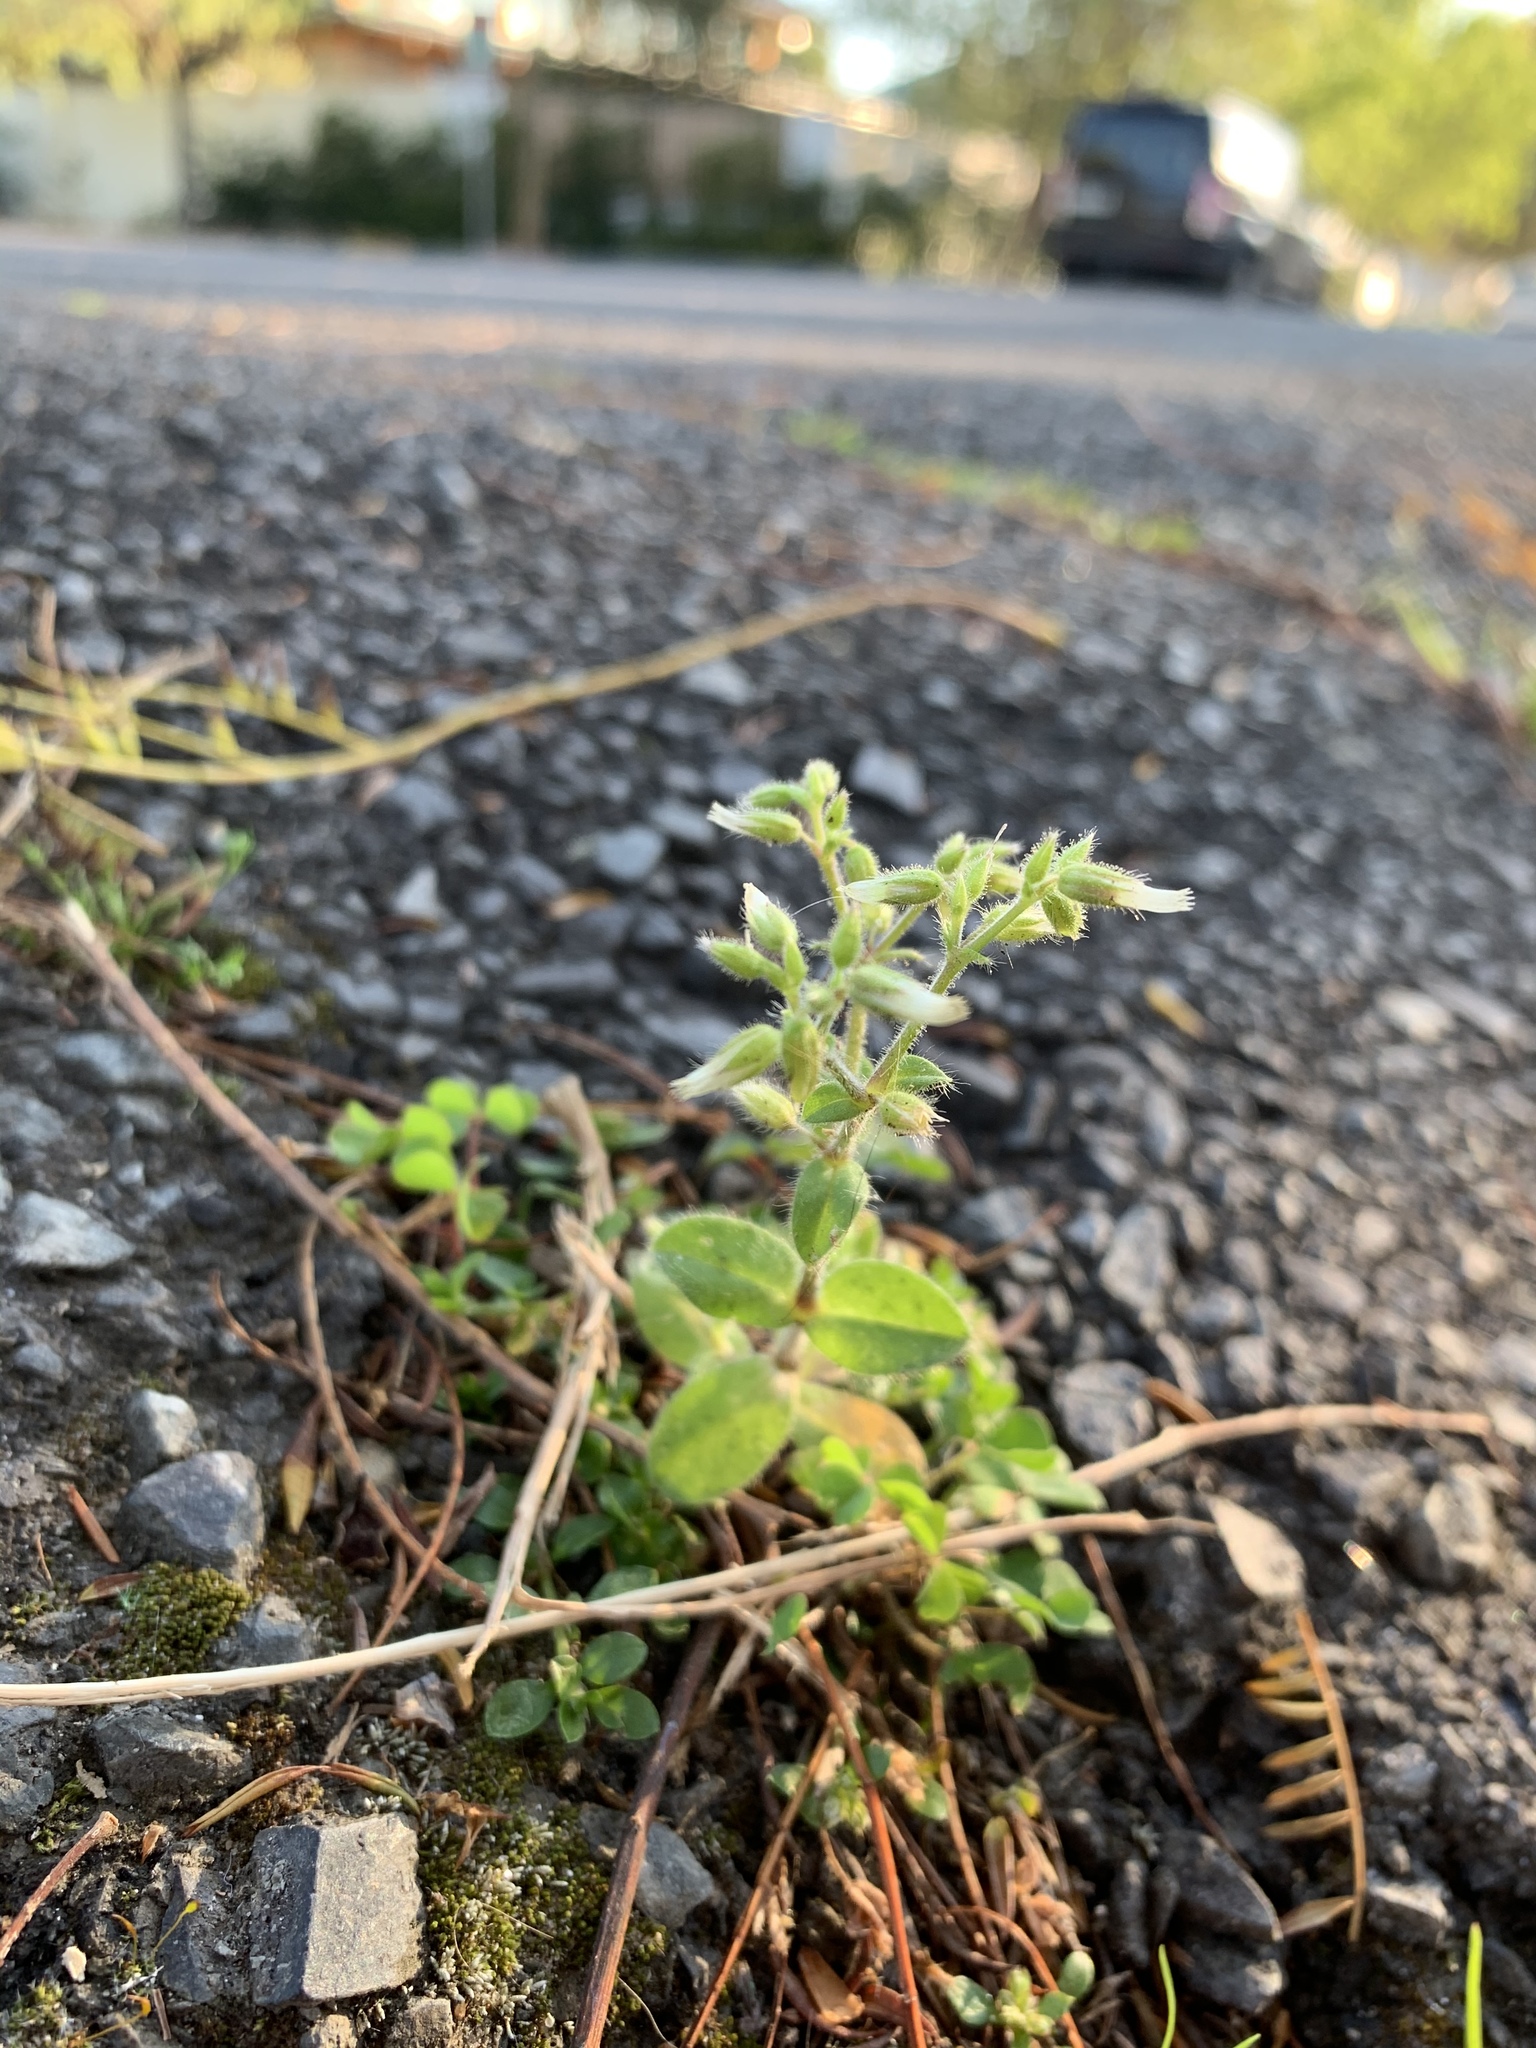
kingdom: Plantae
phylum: Tracheophyta
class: Magnoliopsida
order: Caryophyllales
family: Caryophyllaceae
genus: Cerastium
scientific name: Cerastium glomeratum
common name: Sticky chickweed
